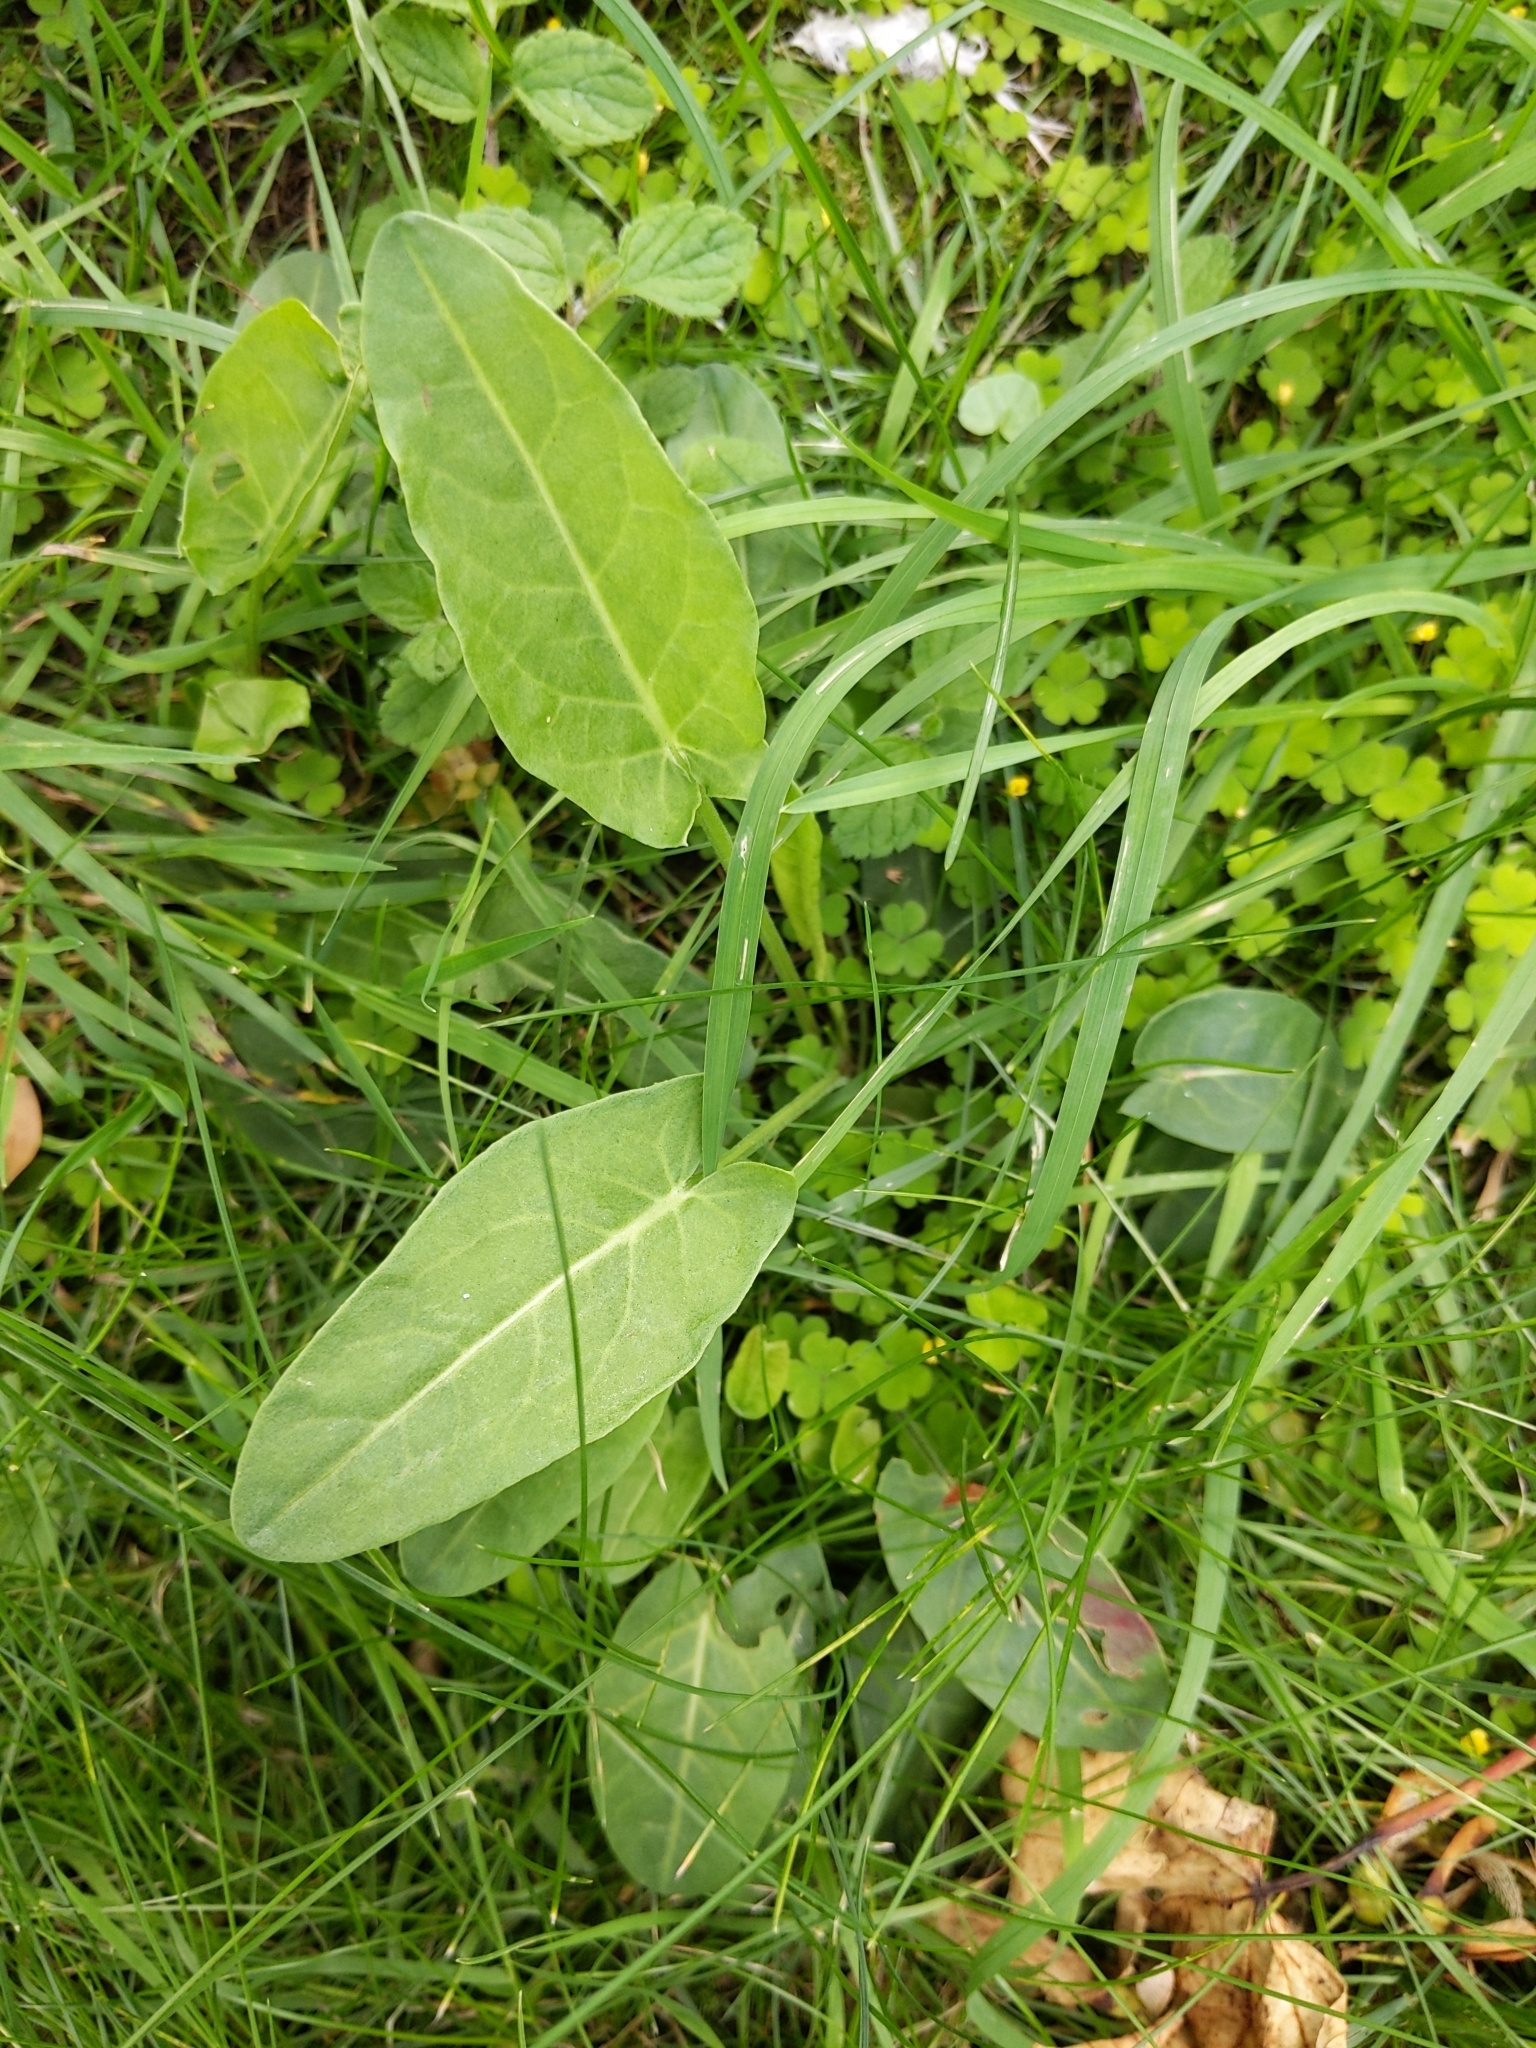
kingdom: Plantae
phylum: Tracheophyta
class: Magnoliopsida
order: Caryophyllales
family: Polygonaceae
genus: Rumex
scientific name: Rumex acetosa
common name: Garden sorrel
